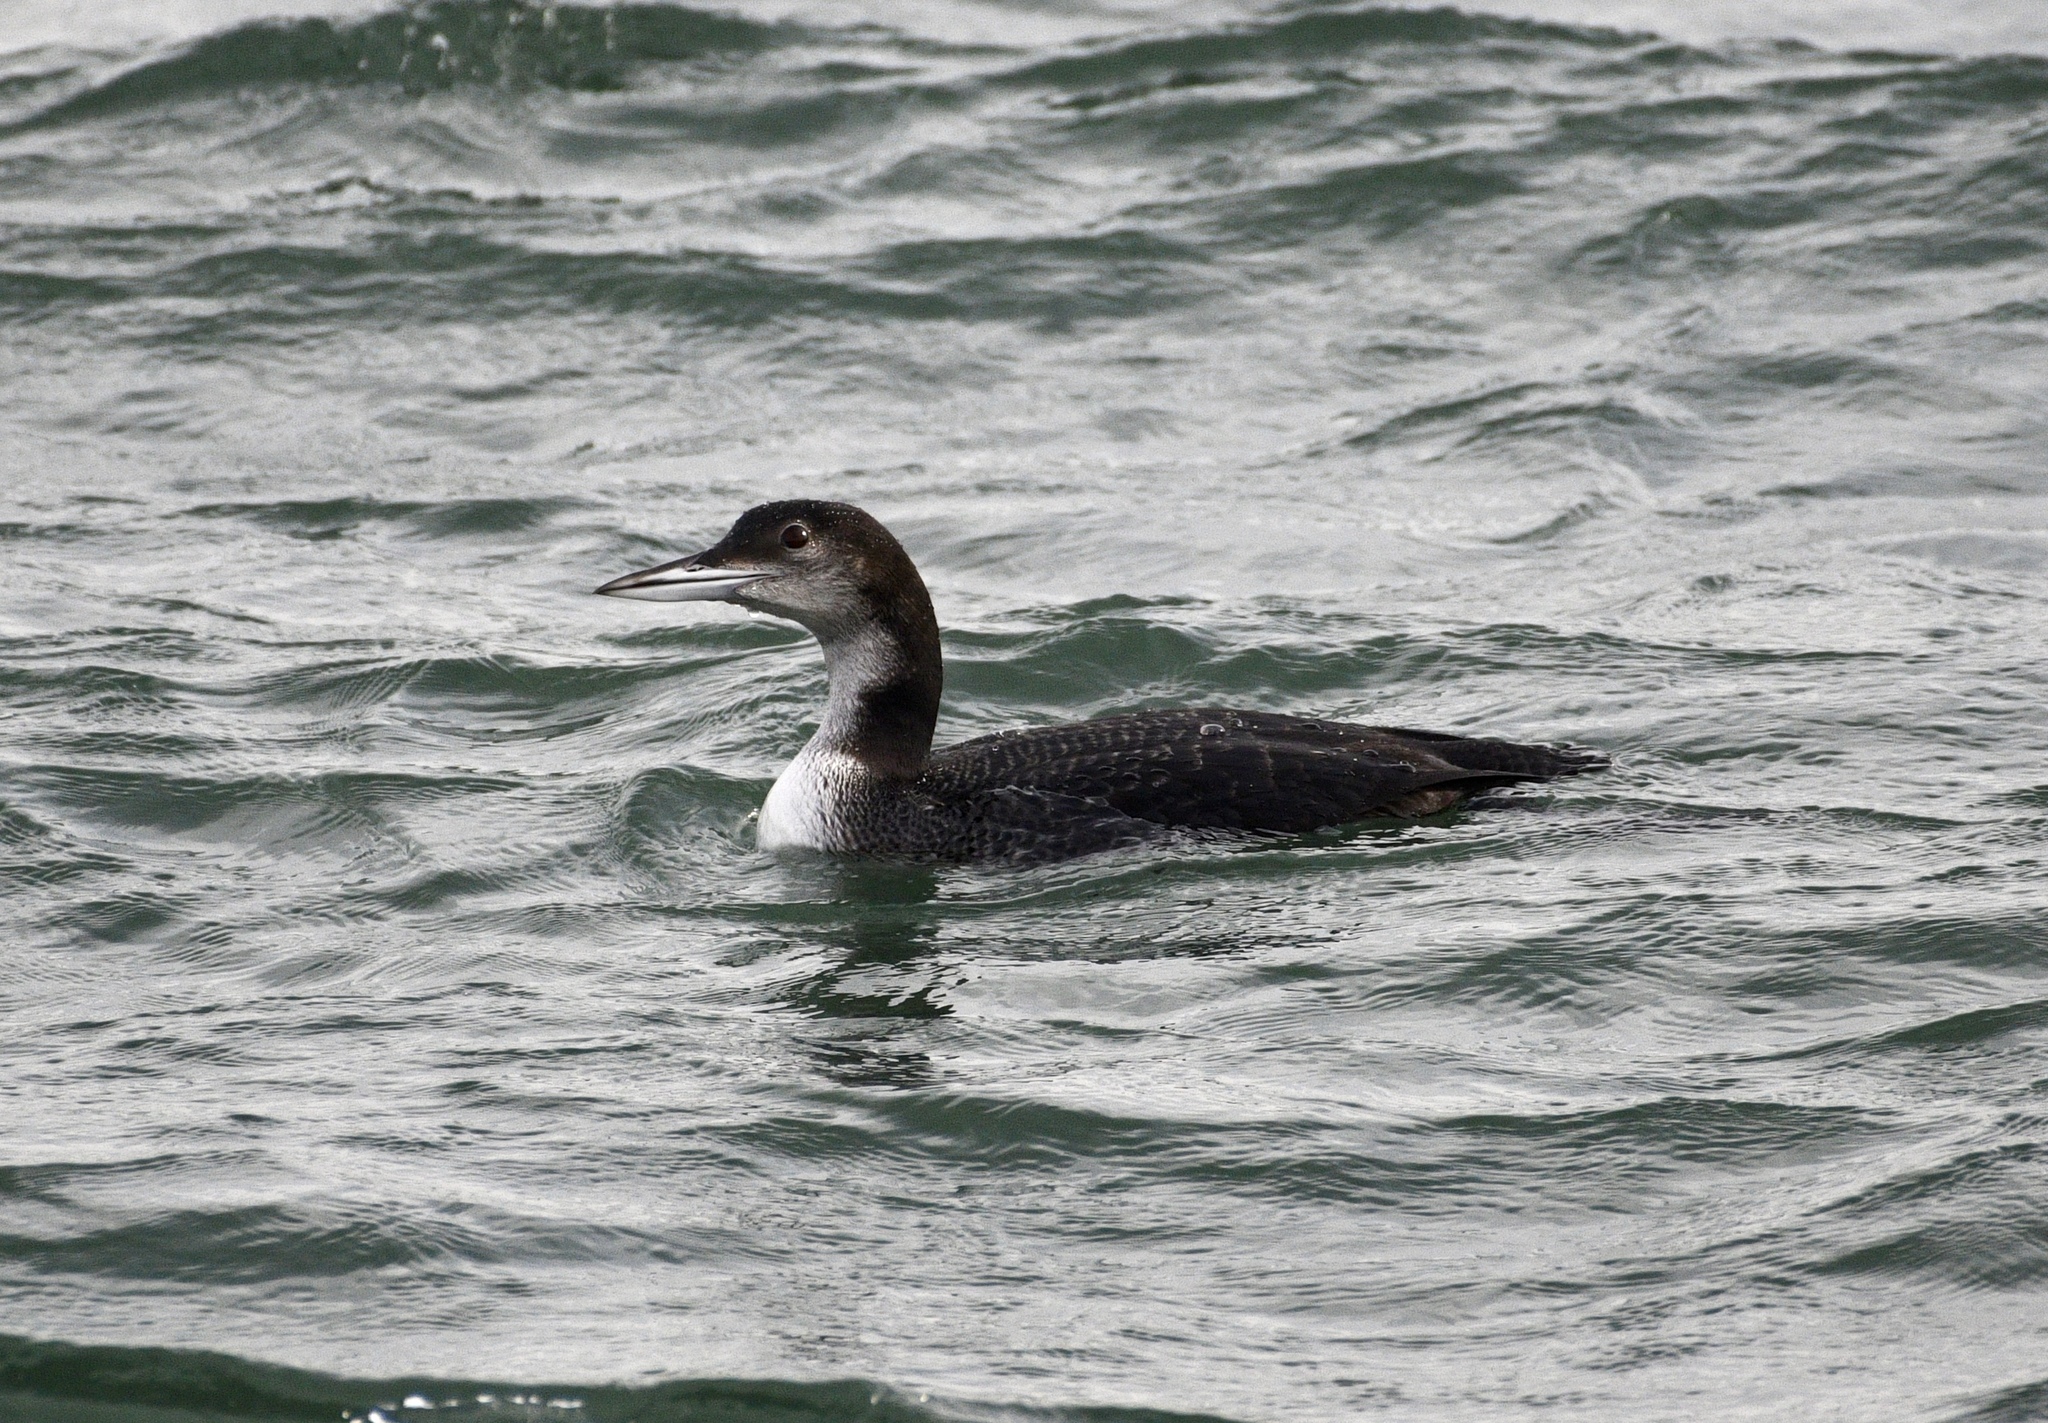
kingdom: Animalia
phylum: Chordata
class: Aves
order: Gaviiformes
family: Gaviidae
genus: Gavia
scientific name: Gavia immer
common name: Common loon
